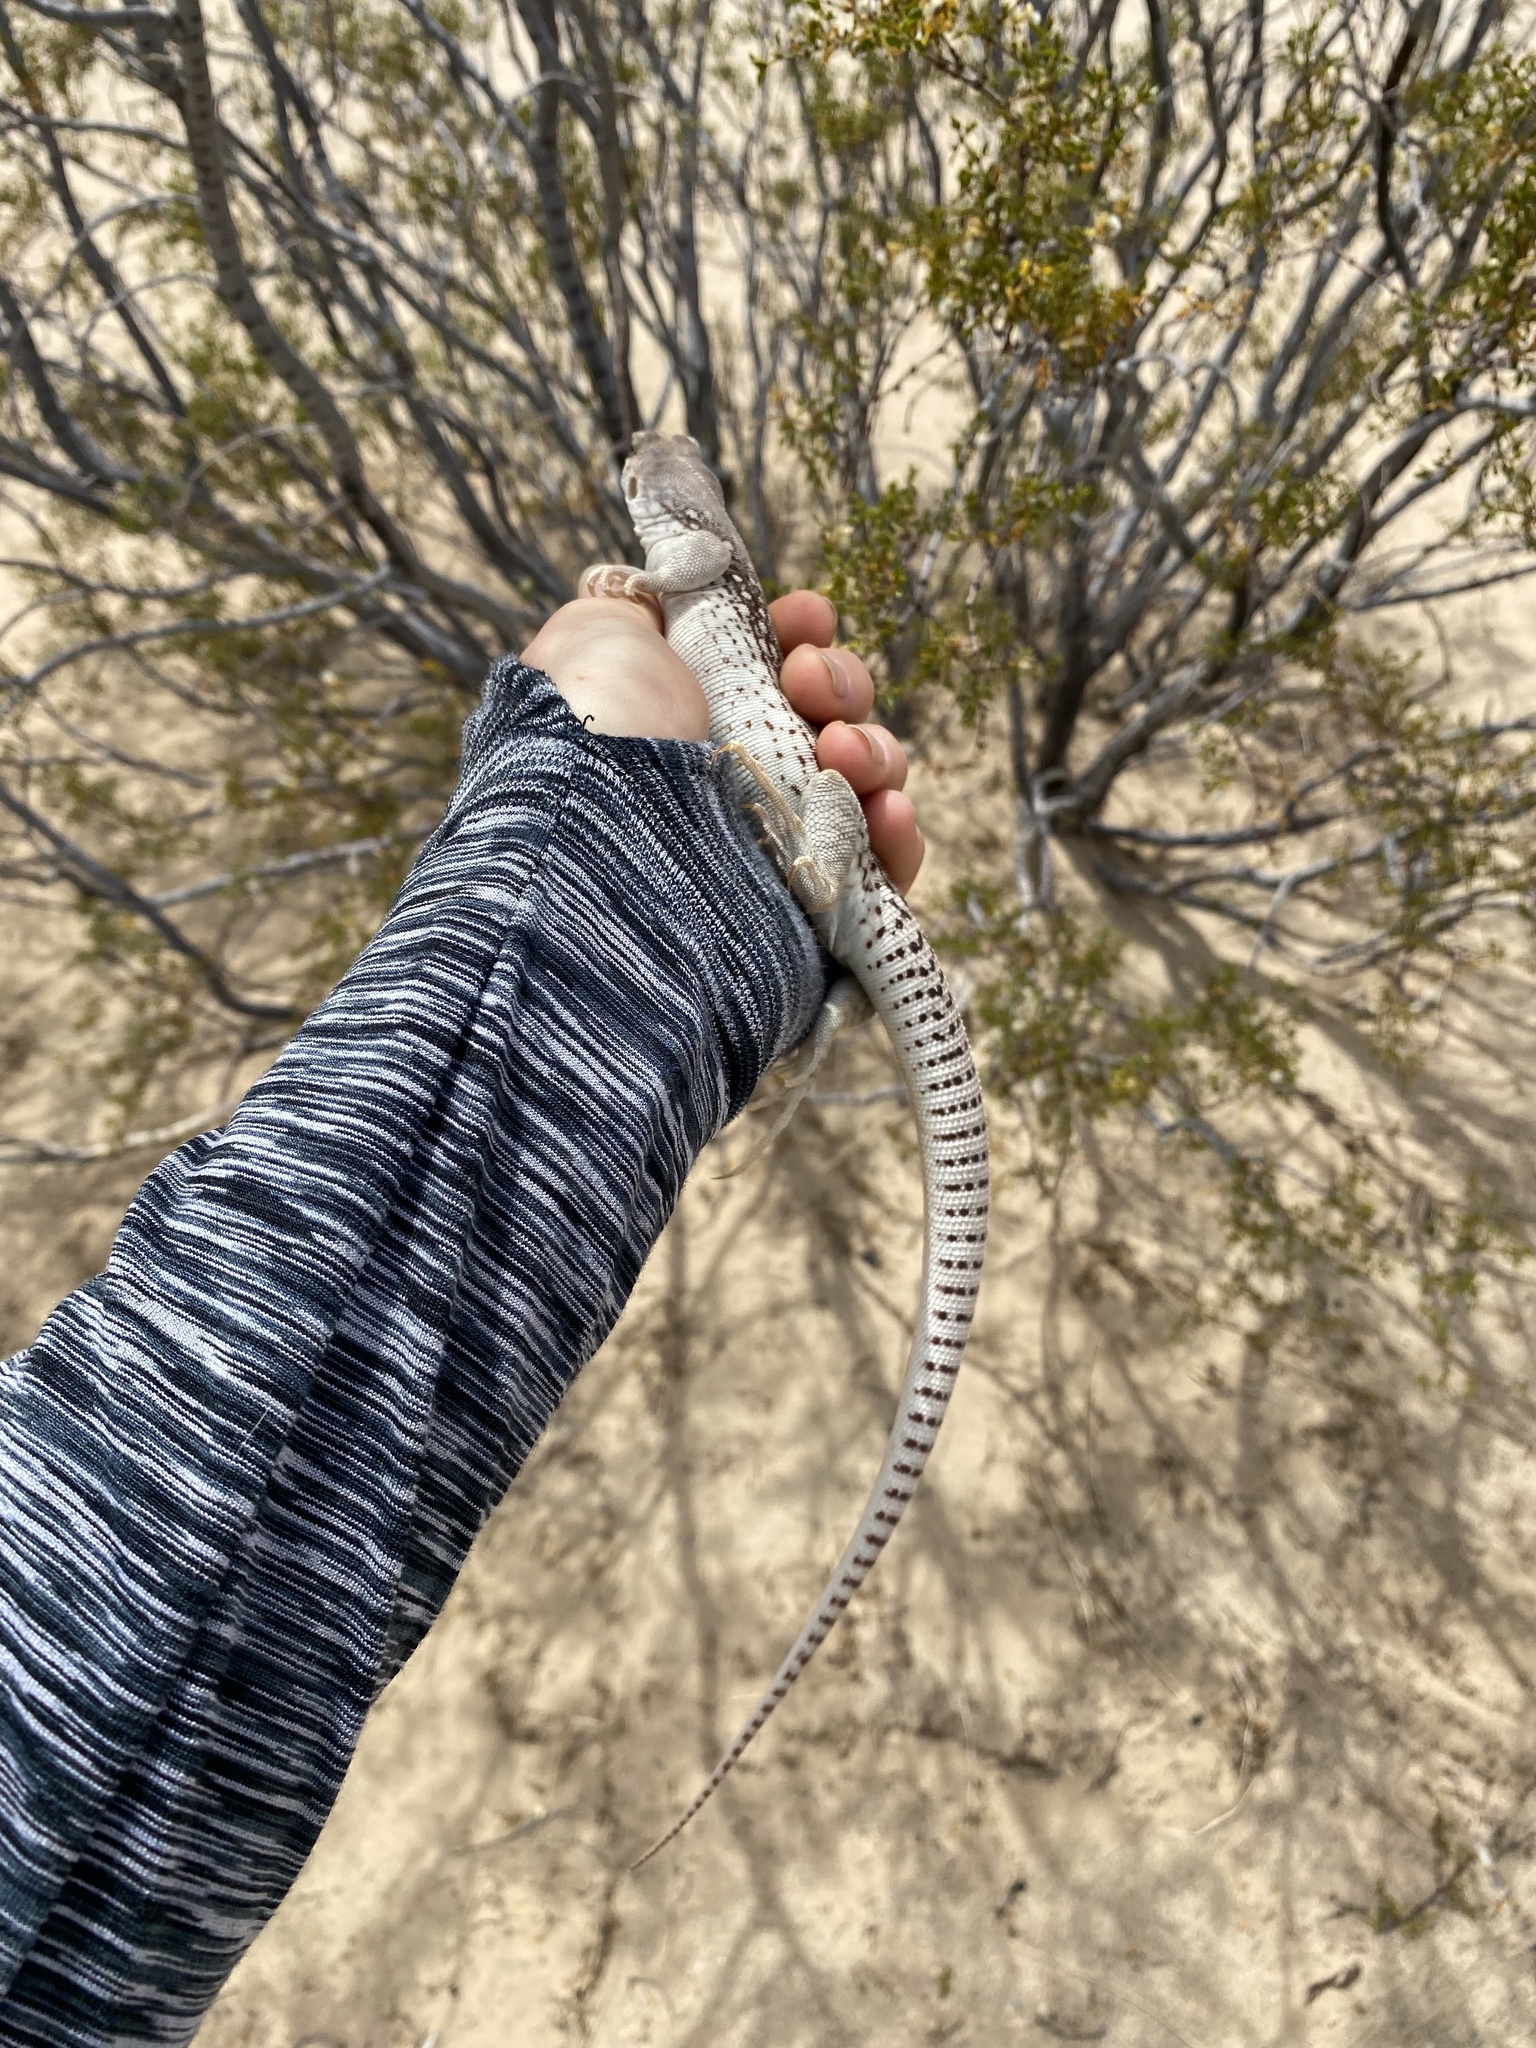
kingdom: Animalia
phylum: Chordata
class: Squamata
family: Iguanidae
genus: Dipsosaurus
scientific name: Dipsosaurus dorsalis
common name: Desert iguana
